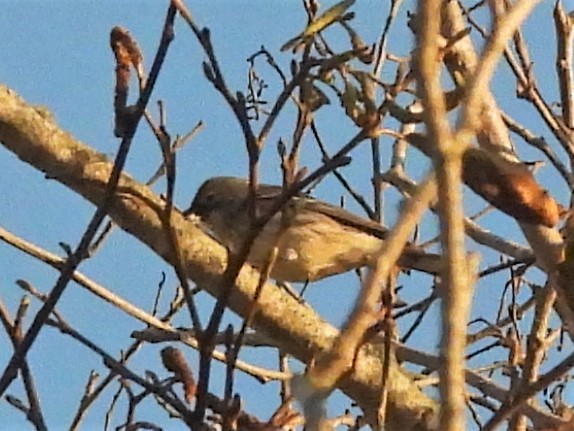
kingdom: Animalia
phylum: Chordata
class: Aves
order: Passeriformes
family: Parulidae
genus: Setophaga
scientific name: Setophaga coronata
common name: Myrtle warbler
